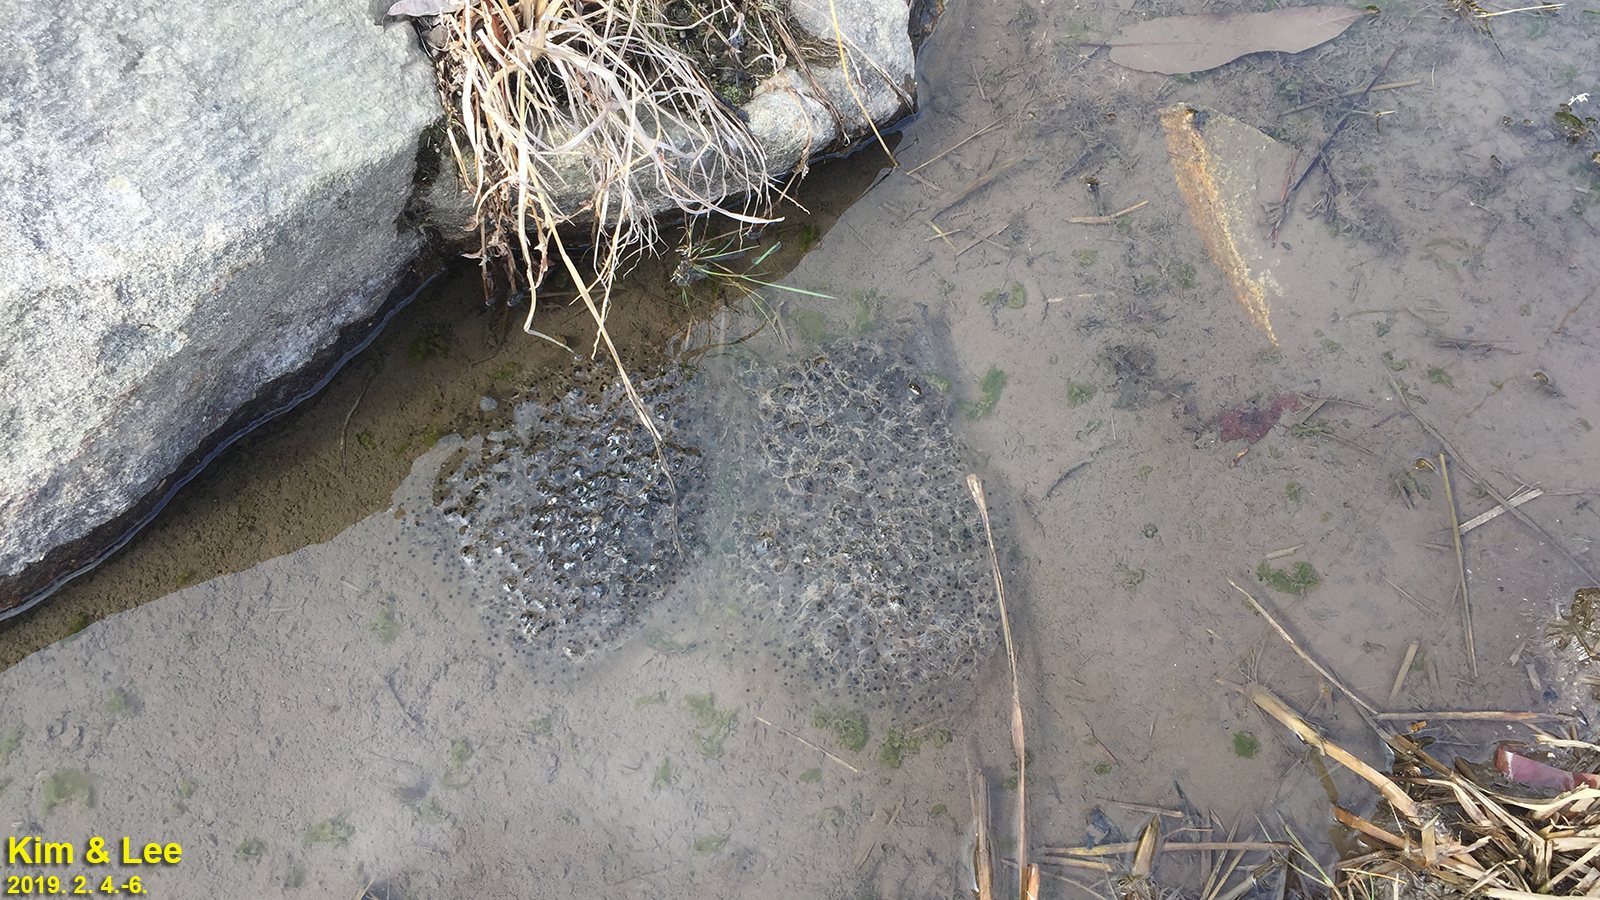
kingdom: Animalia
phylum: Chordata
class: Amphibia
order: Anura
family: Ranidae
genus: Rana
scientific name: Rana uenoi
